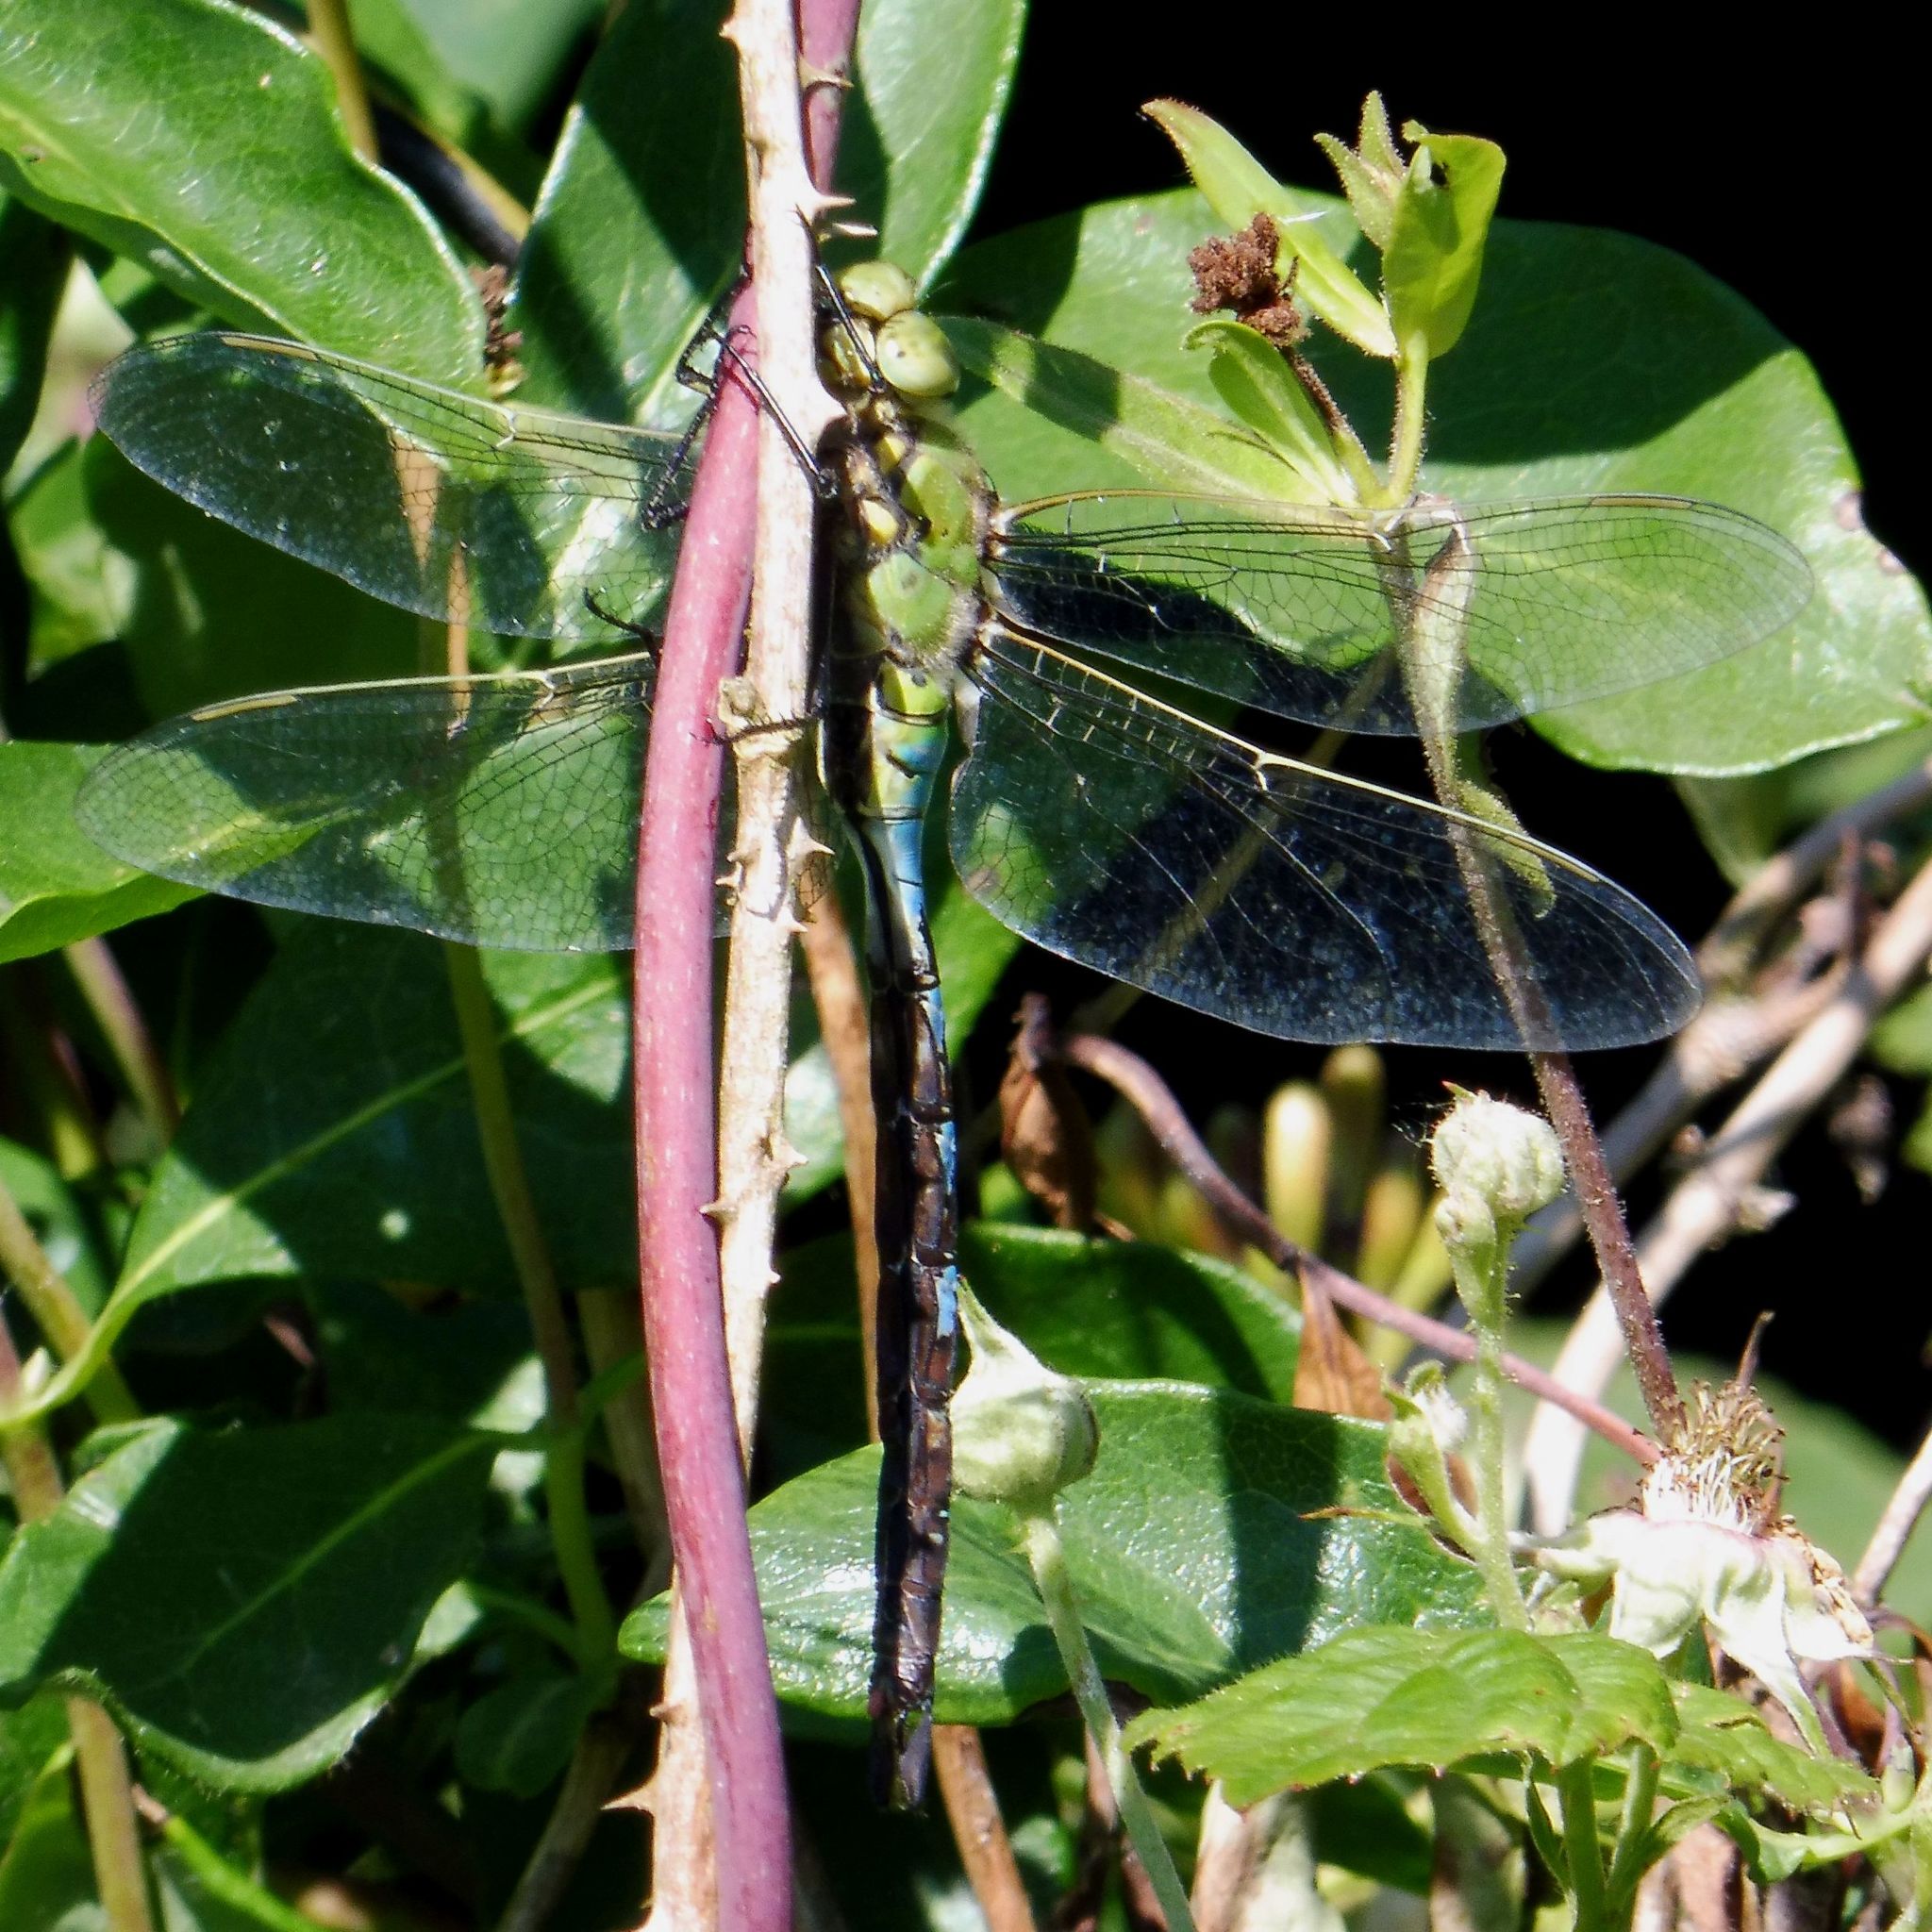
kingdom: Animalia
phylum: Arthropoda
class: Insecta
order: Odonata
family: Aeshnidae
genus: Anax
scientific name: Anax imperator
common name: Emperor dragonfly
